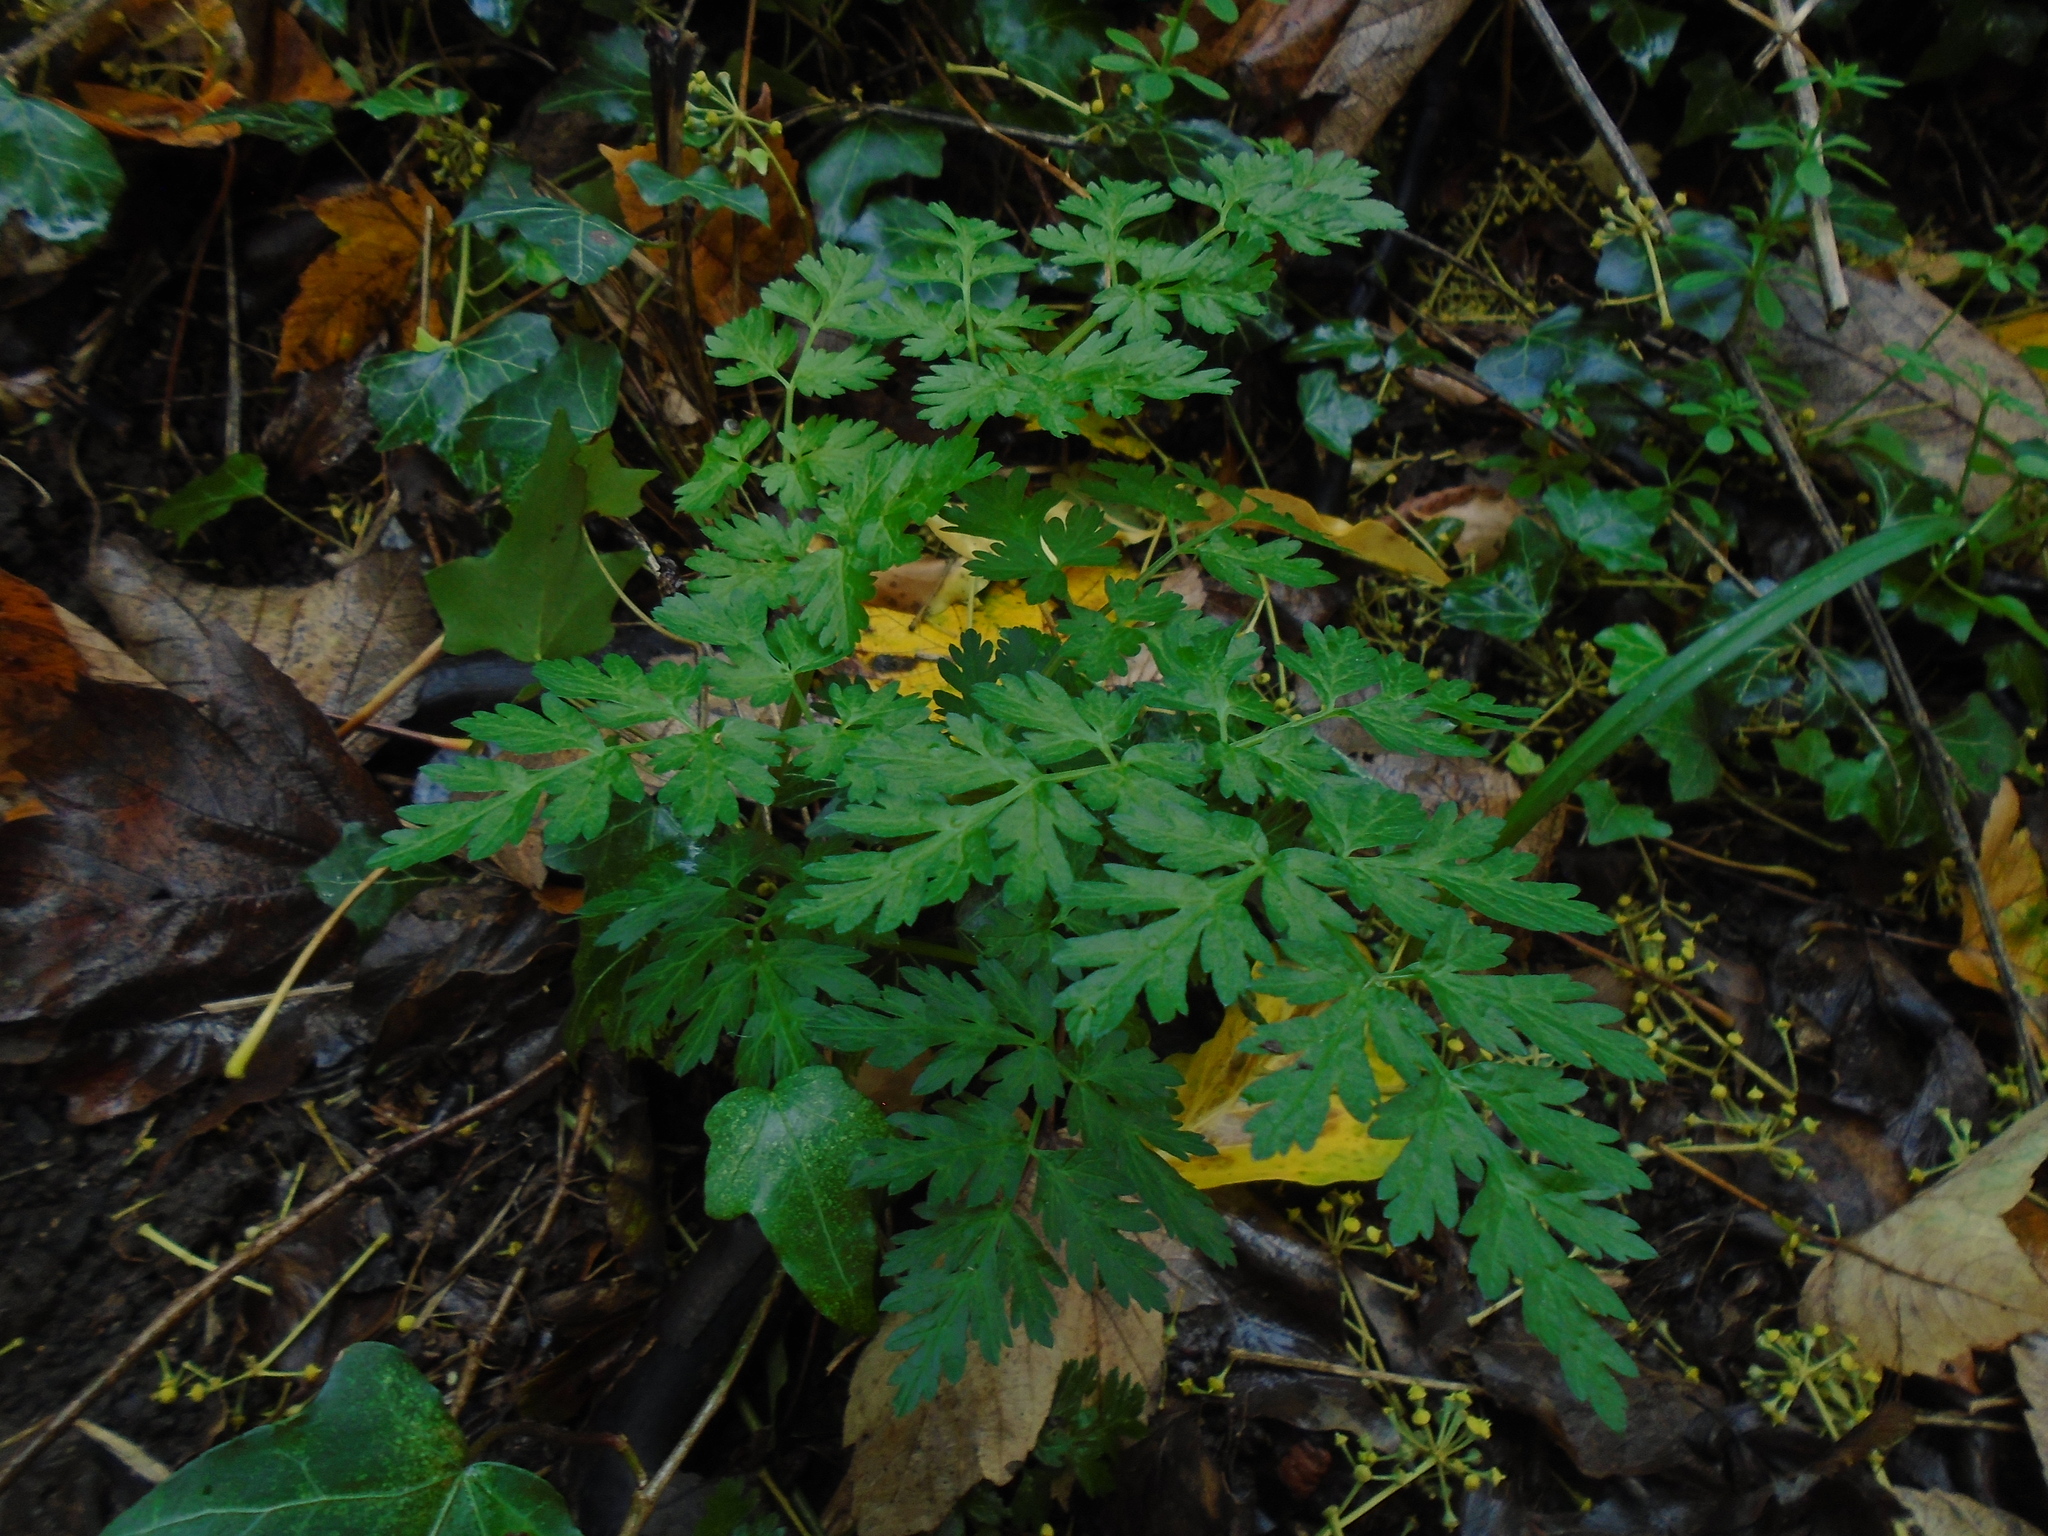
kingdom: Plantae
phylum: Tracheophyta
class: Magnoliopsida
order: Apiales
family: Apiaceae
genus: Anthriscus
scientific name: Anthriscus sylvestris
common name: Cow parsley
